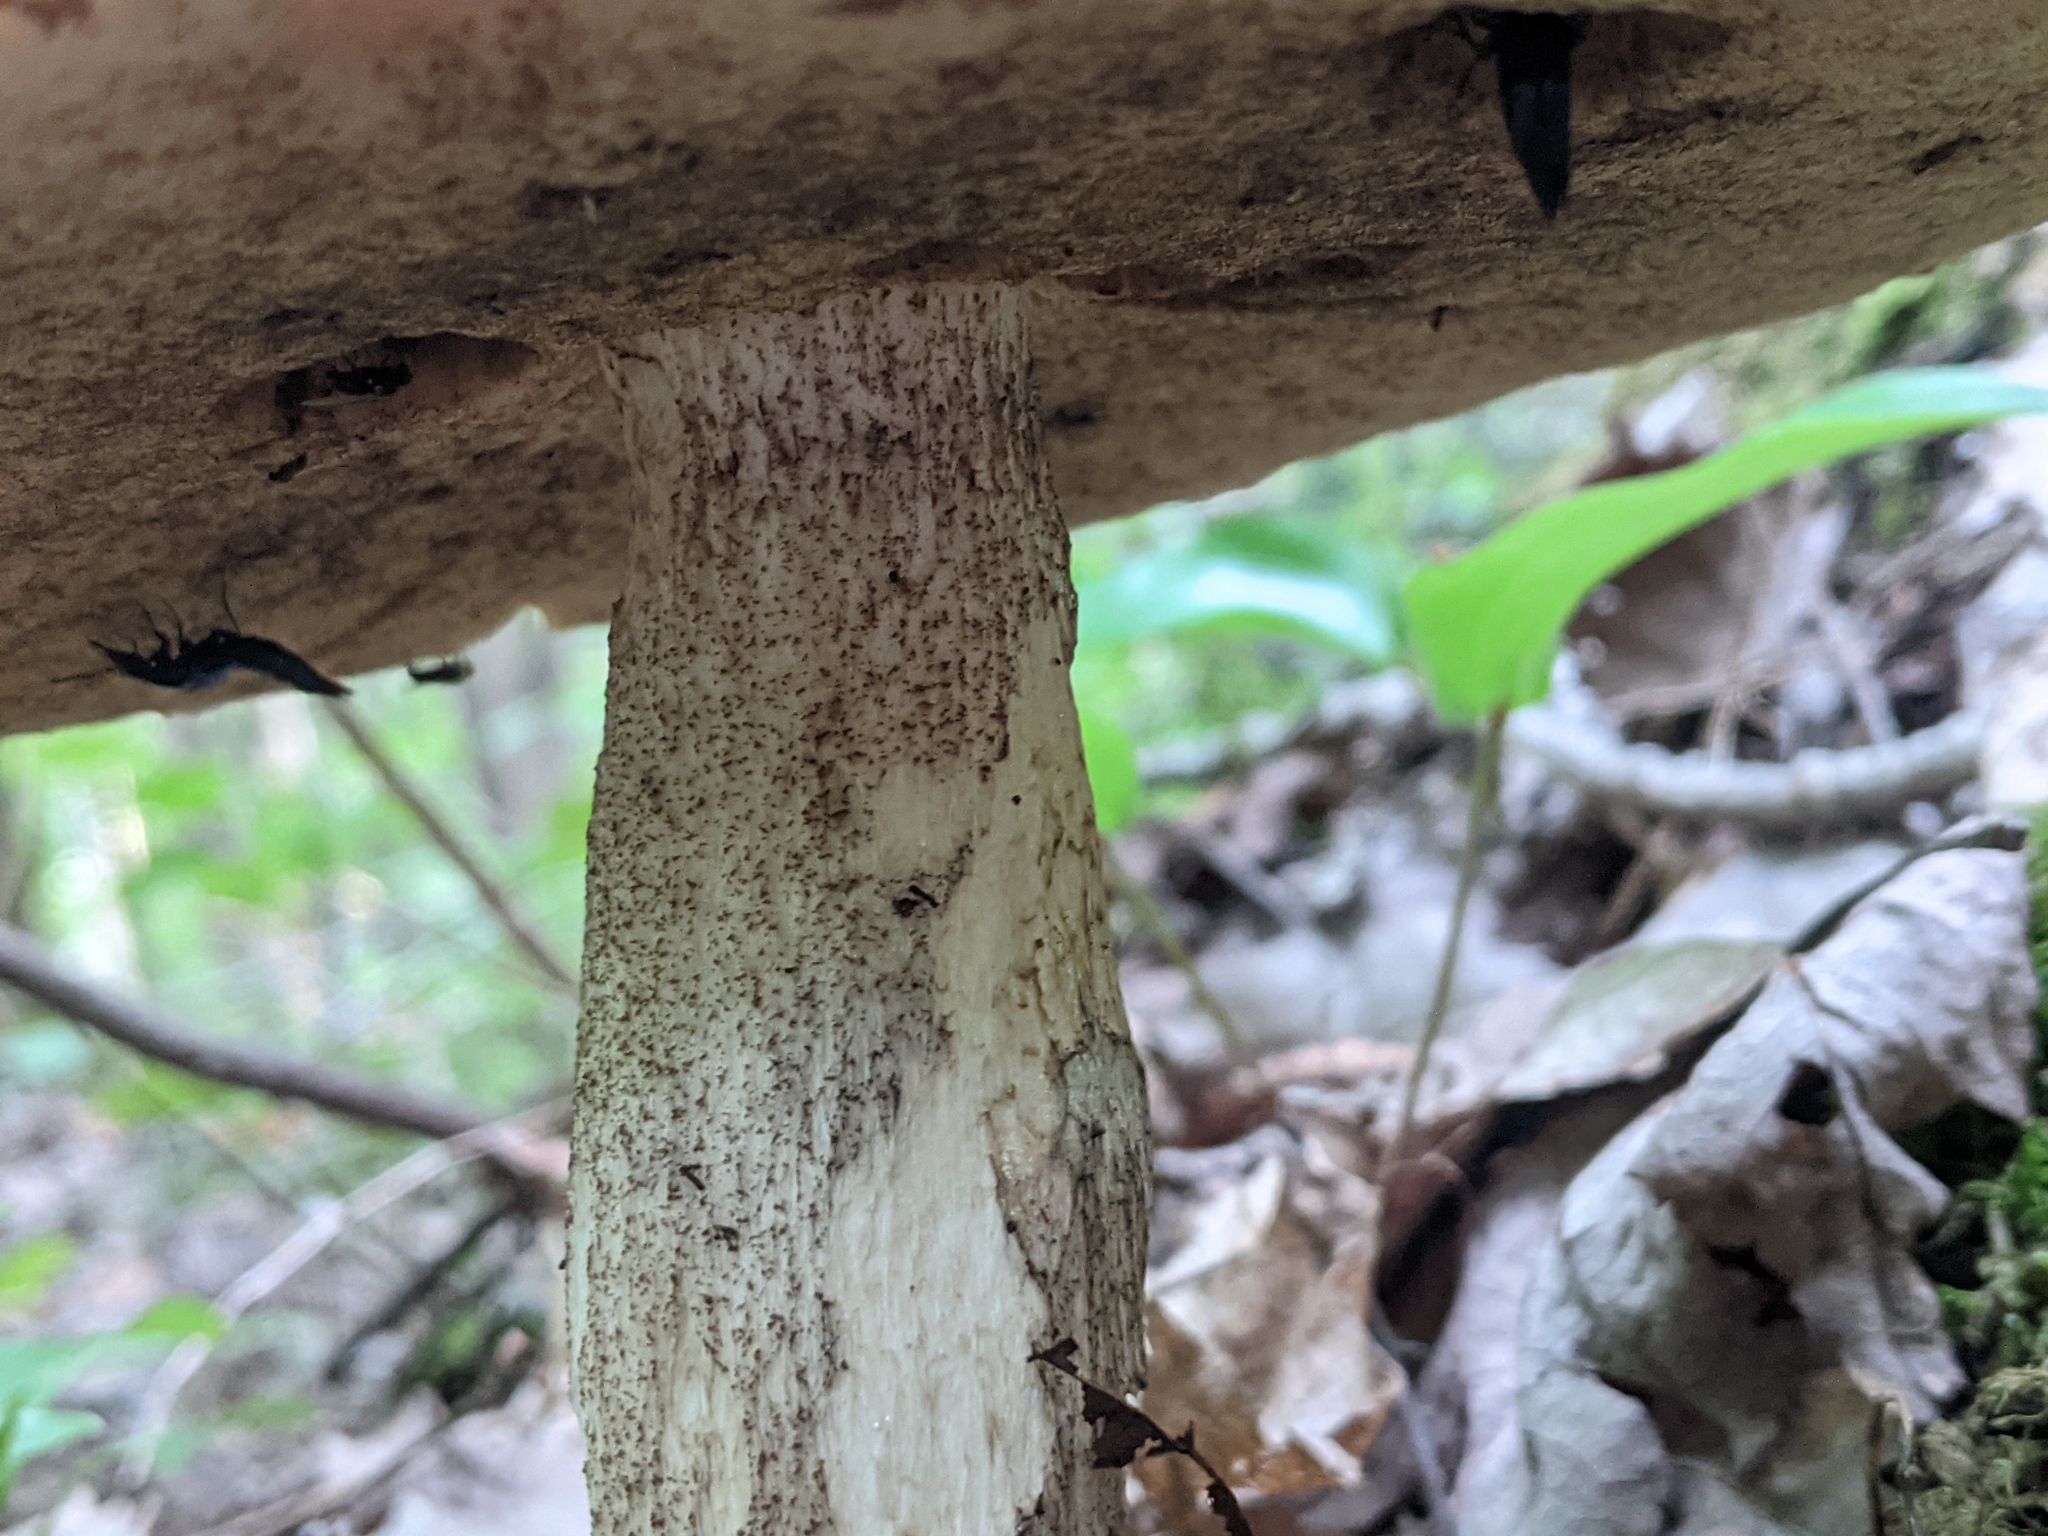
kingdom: Fungi
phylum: Basidiomycota
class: Agaricomycetes
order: Boletales
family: Boletaceae
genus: Leccinum
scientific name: Leccinum aurantiacum
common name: Orange bolete
